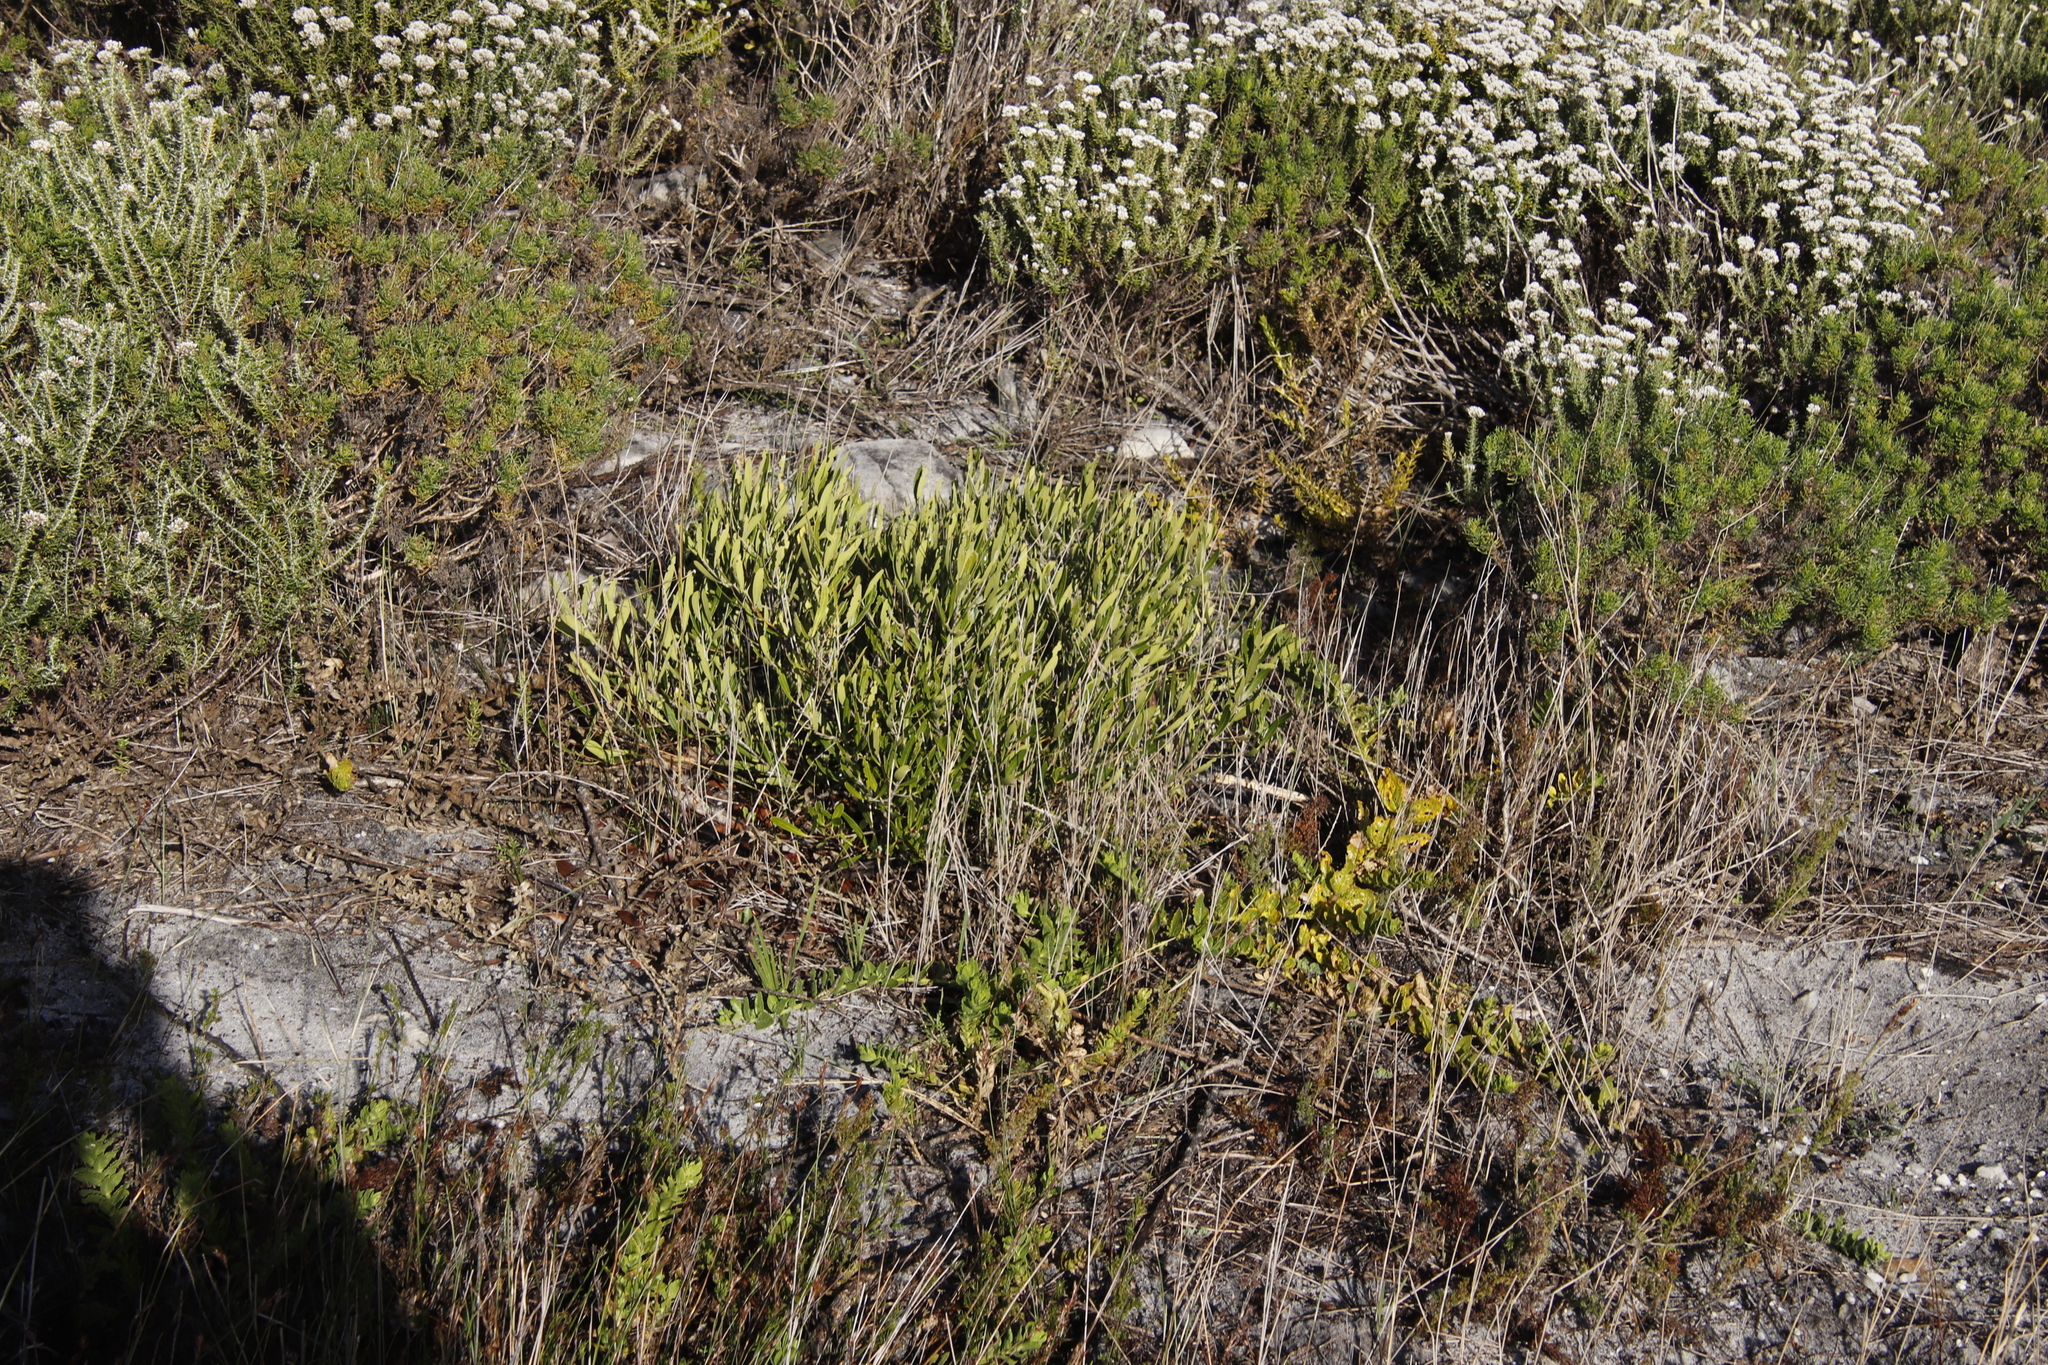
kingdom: Plantae
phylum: Tracheophyta
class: Magnoliopsida
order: Lamiales
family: Oleaceae
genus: Olea
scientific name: Olea exasperata
